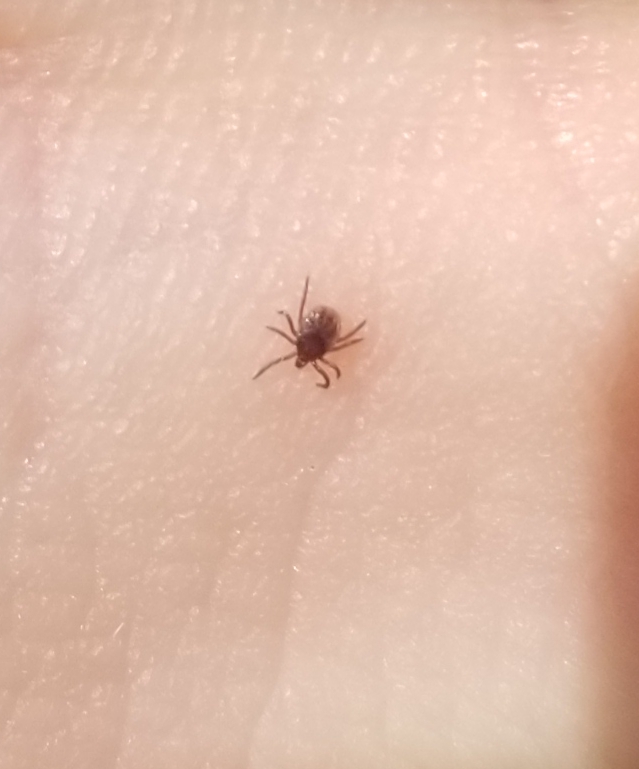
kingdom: Animalia
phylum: Arthropoda
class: Arachnida
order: Ixodida
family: Ixodidae
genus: Ixodes
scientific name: Ixodes pacificus
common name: California black-legged tick
